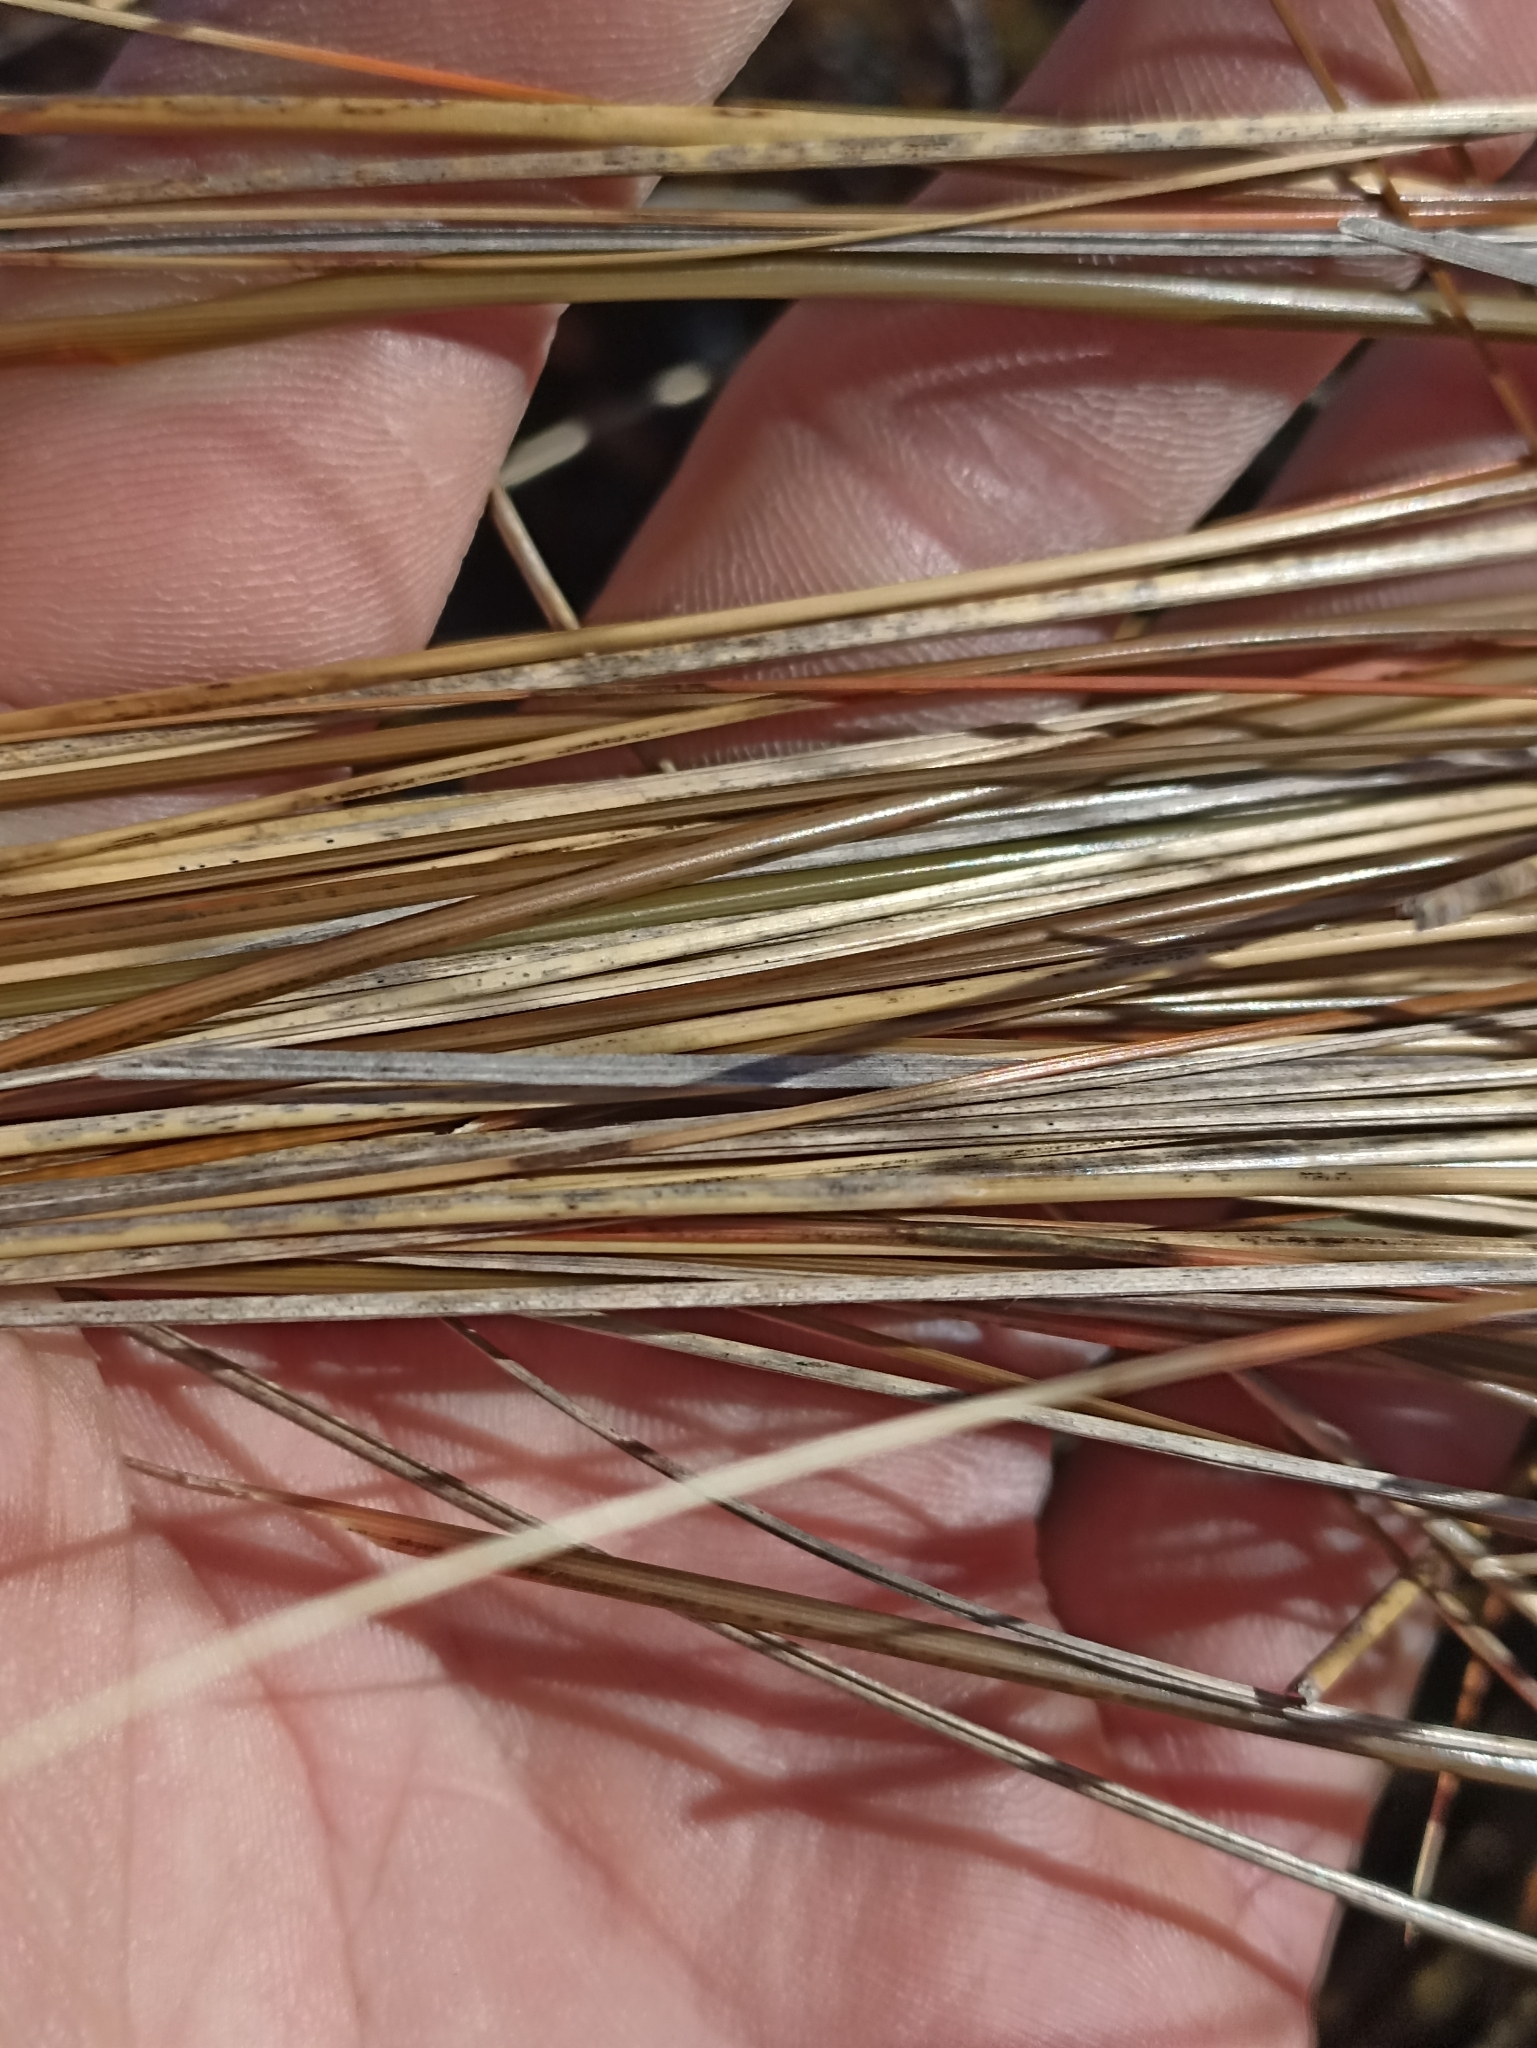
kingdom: Plantae
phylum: Tracheophyta
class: Liliopsida
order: Poales
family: Poaceae
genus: Chionochloa
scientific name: Chionochloa rubra
